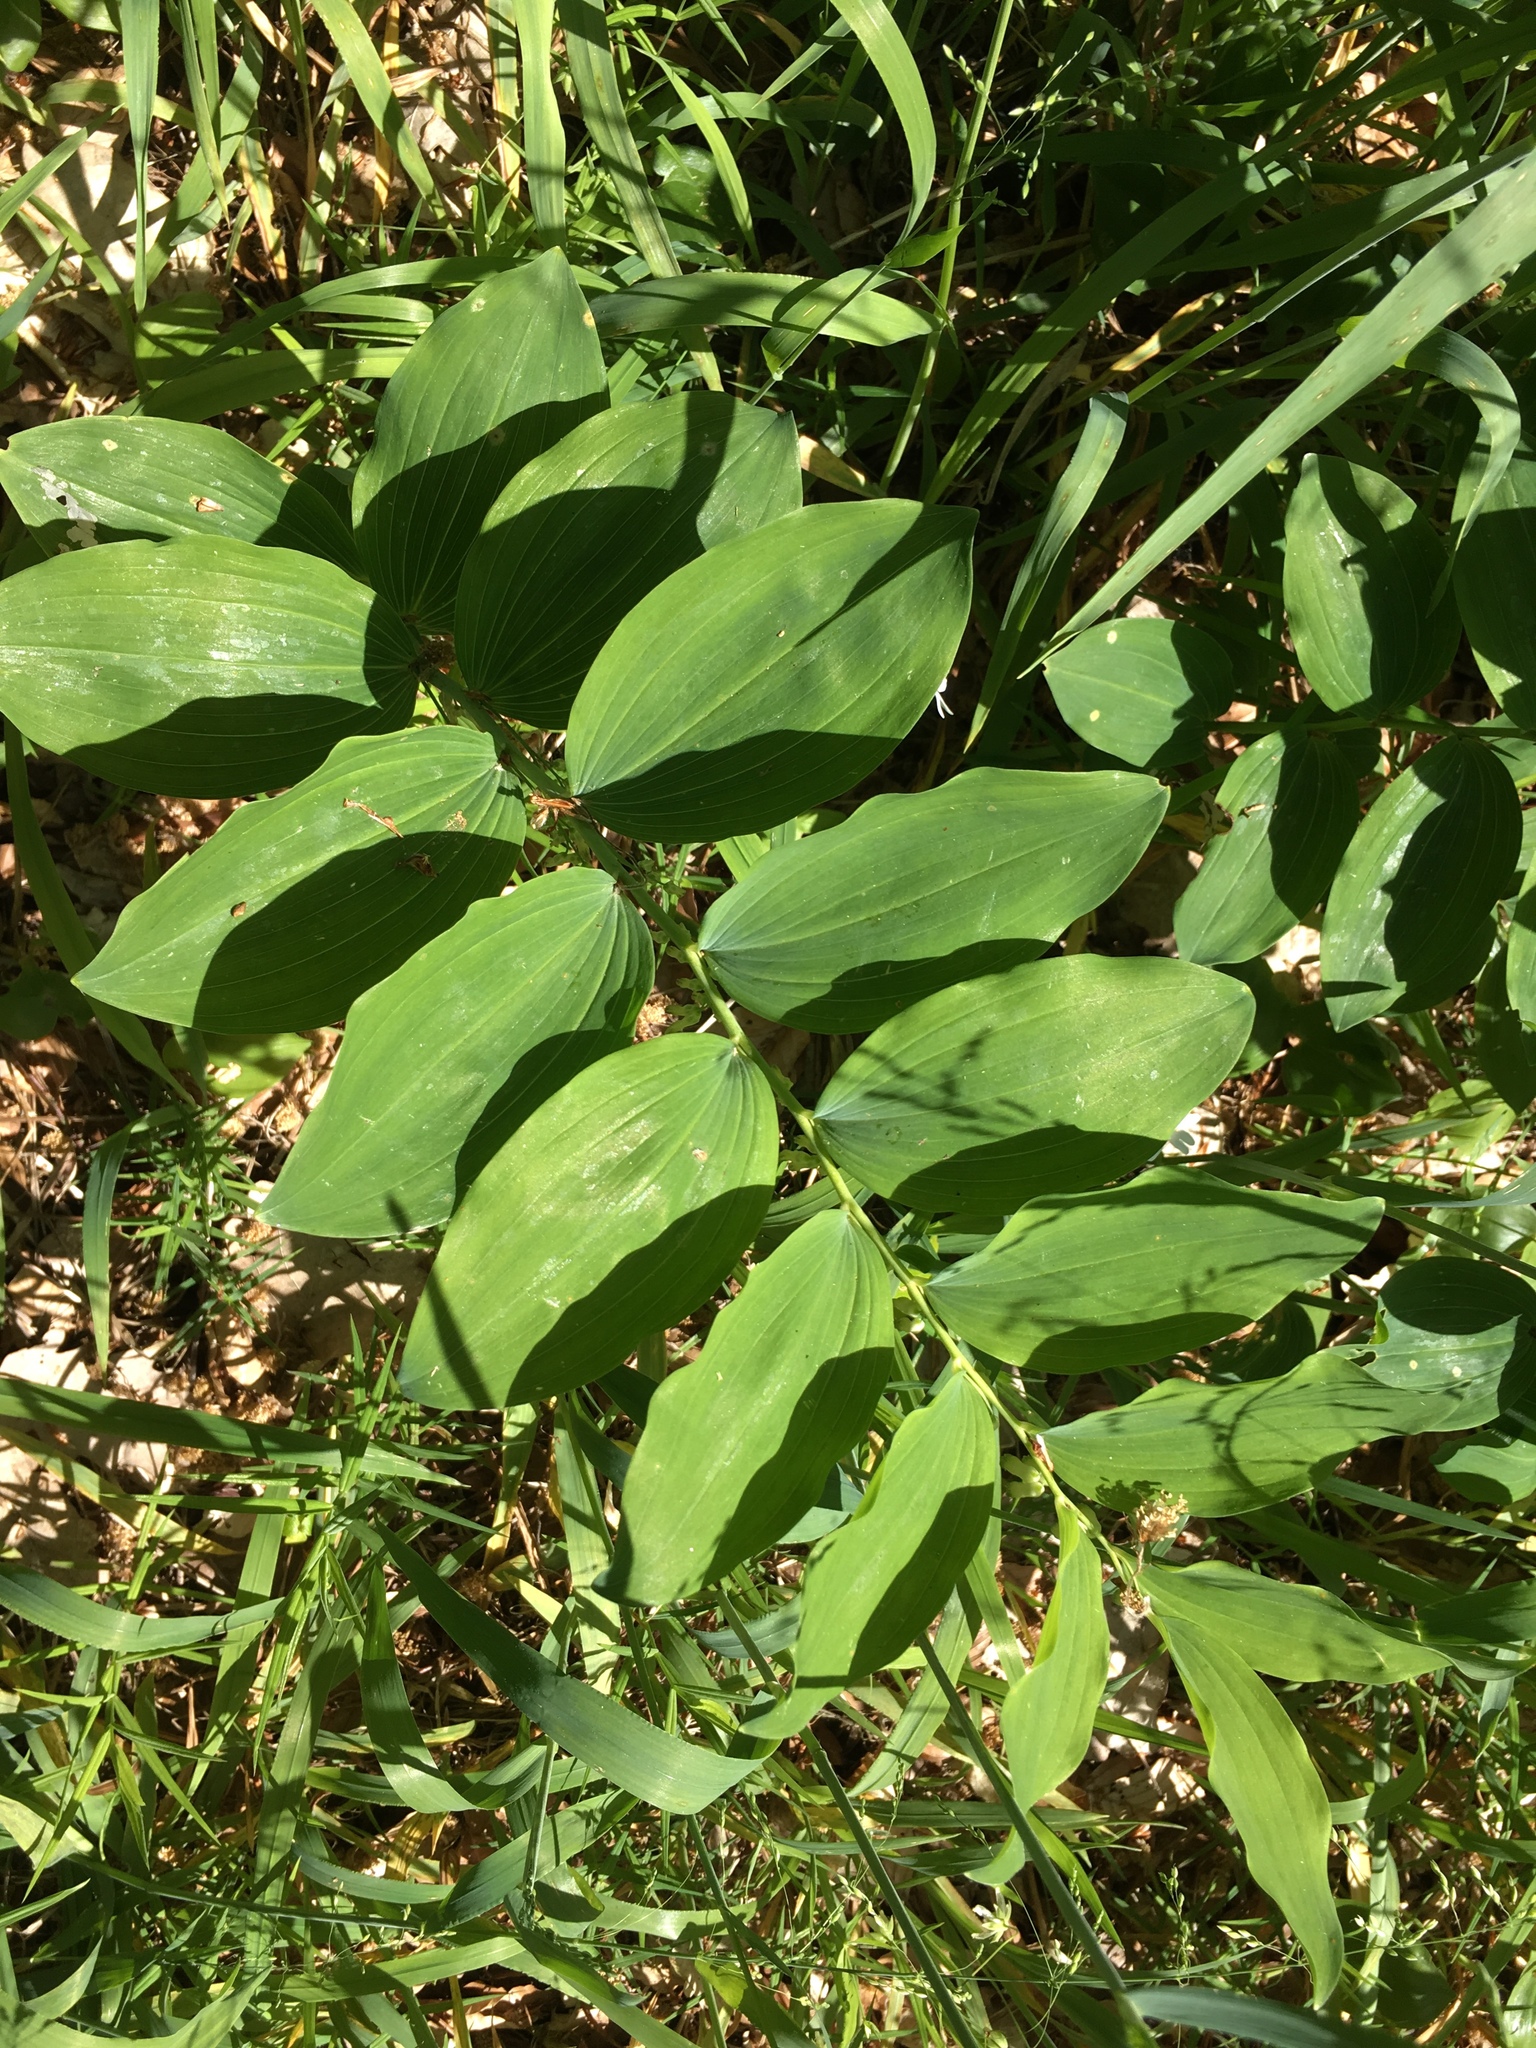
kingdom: Plantae
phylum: Tracheophyta
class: Liliopsida
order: Asparagales
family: Asparagaceae
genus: Polygonatum
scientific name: Polygonatum multiflorum
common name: Solomon's-seal
